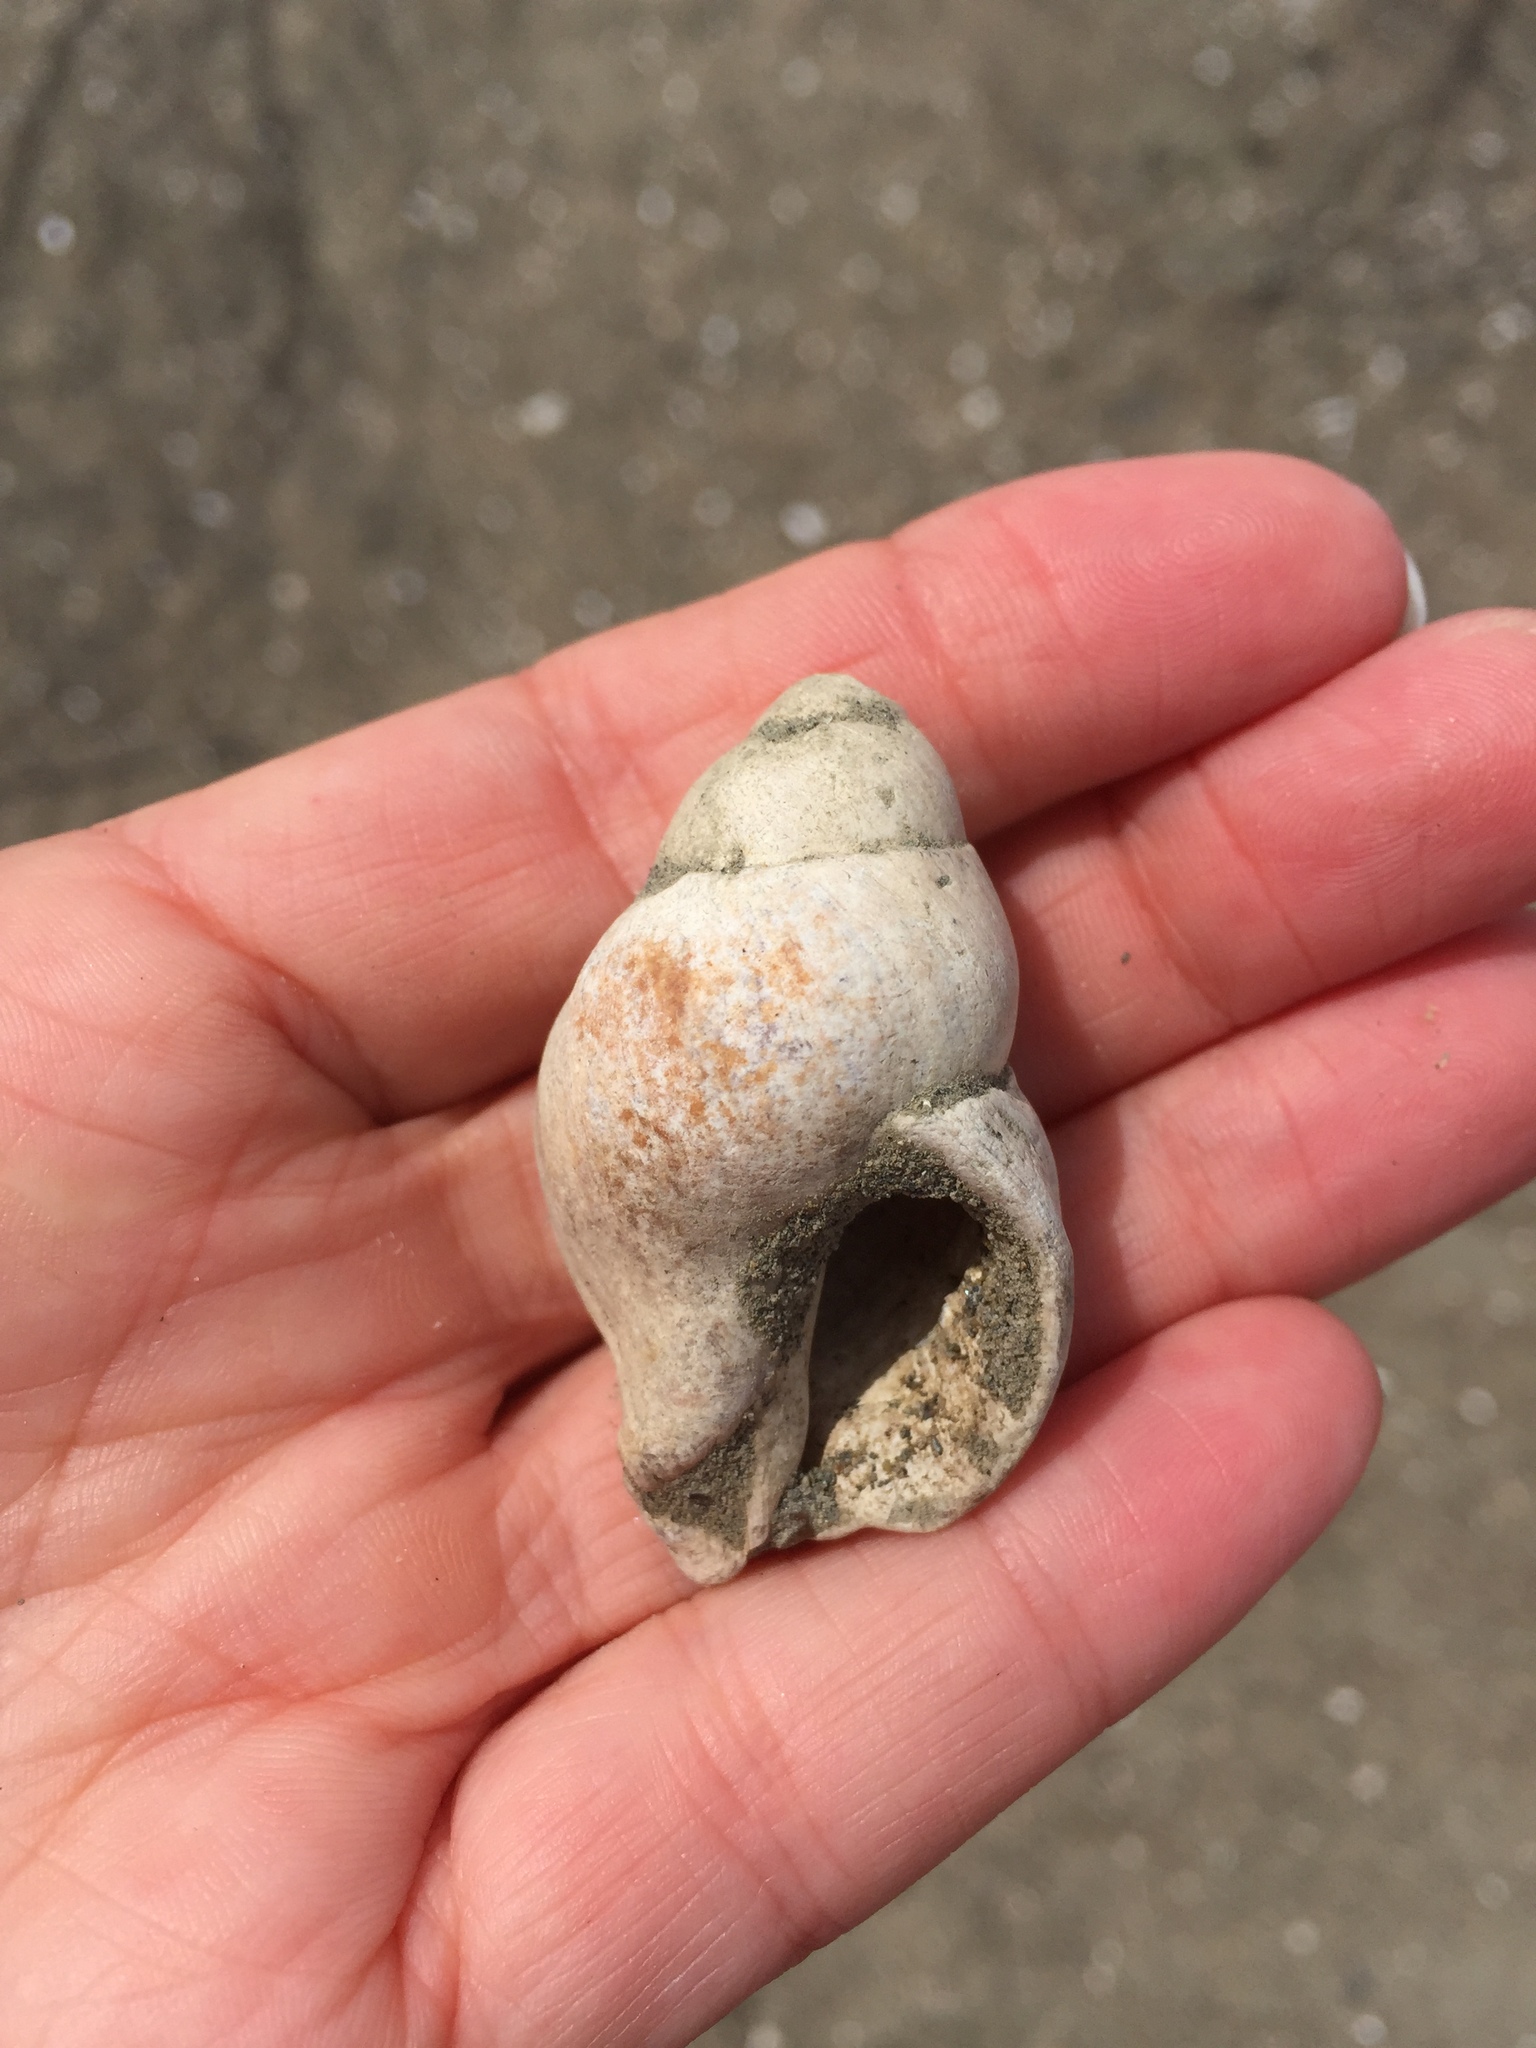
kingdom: Animalia
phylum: Mollusca
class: Gastropoda
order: Neogastropoda
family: Muricidae
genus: Nucella
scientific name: Nucella lamellosa
